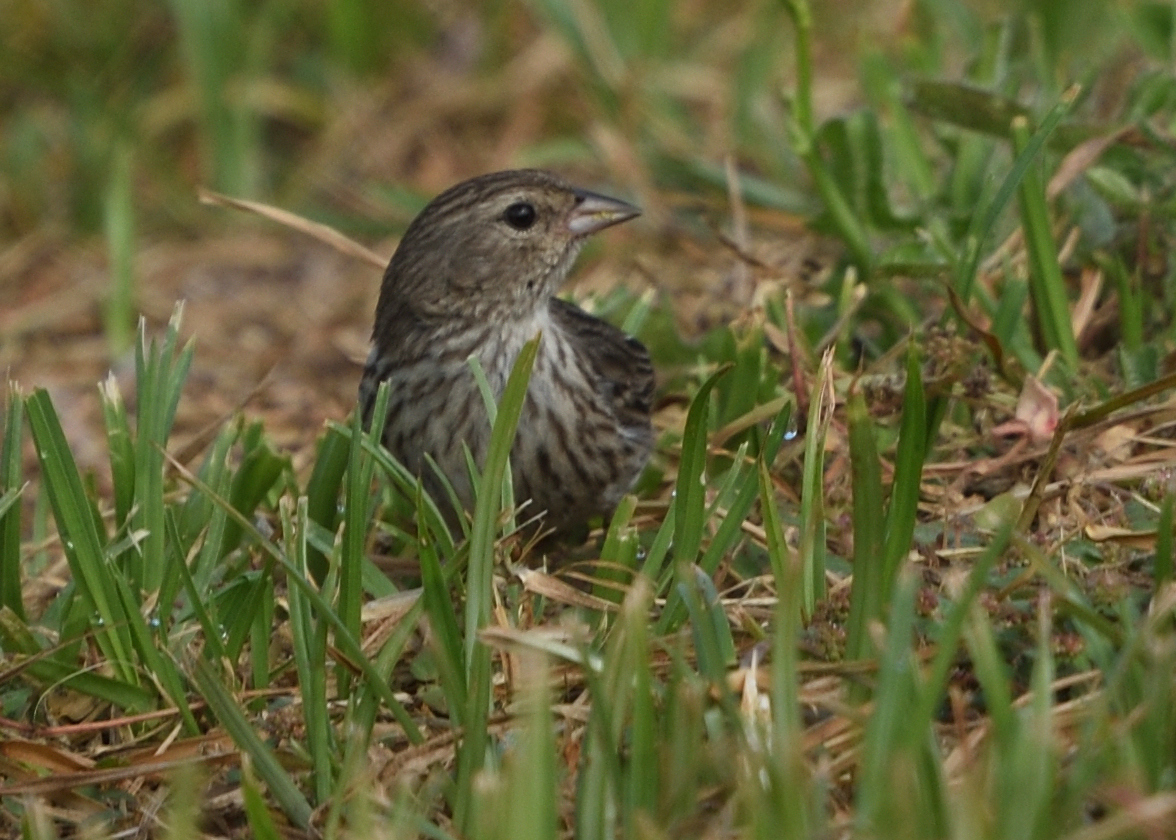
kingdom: Animalia
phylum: Chordata
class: Aves
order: Passeriformes
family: Thraupidae
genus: Geospizopsis
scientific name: Geospizopsis plebejus
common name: Ash-breasted sierra-finch
